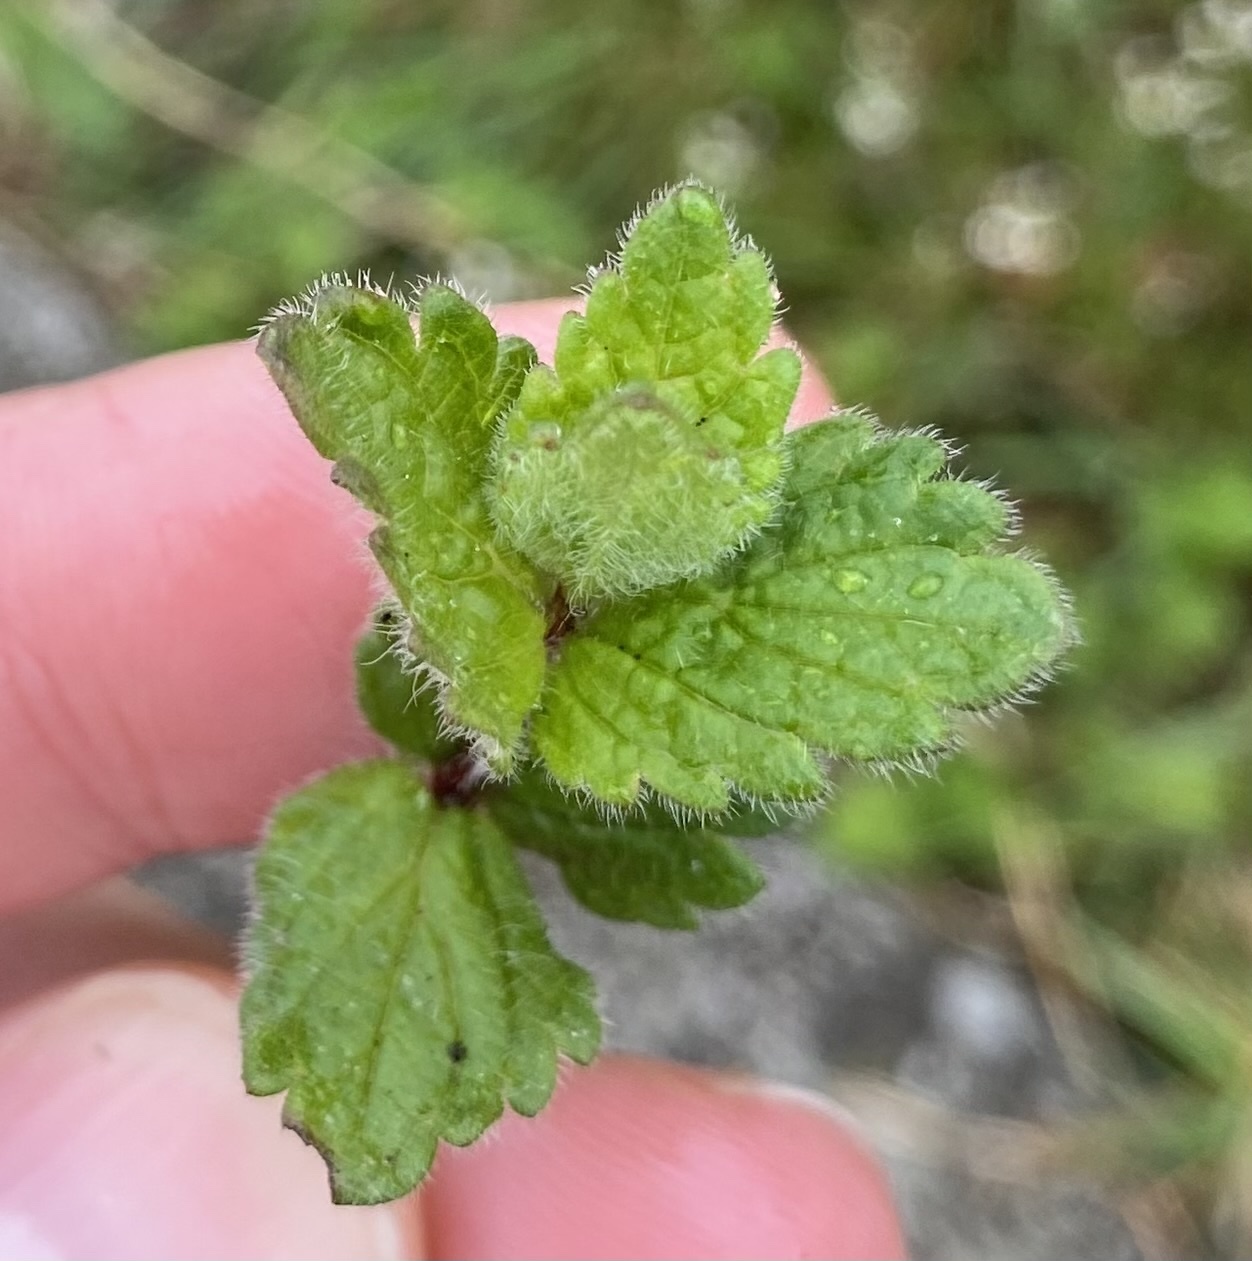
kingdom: Plantae
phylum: Tracheophyta
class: Magnoliopsida
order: Lamiales
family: Plantaginaceae
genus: Veronica
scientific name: Veronica chamaedrys
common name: Germander speedwell
